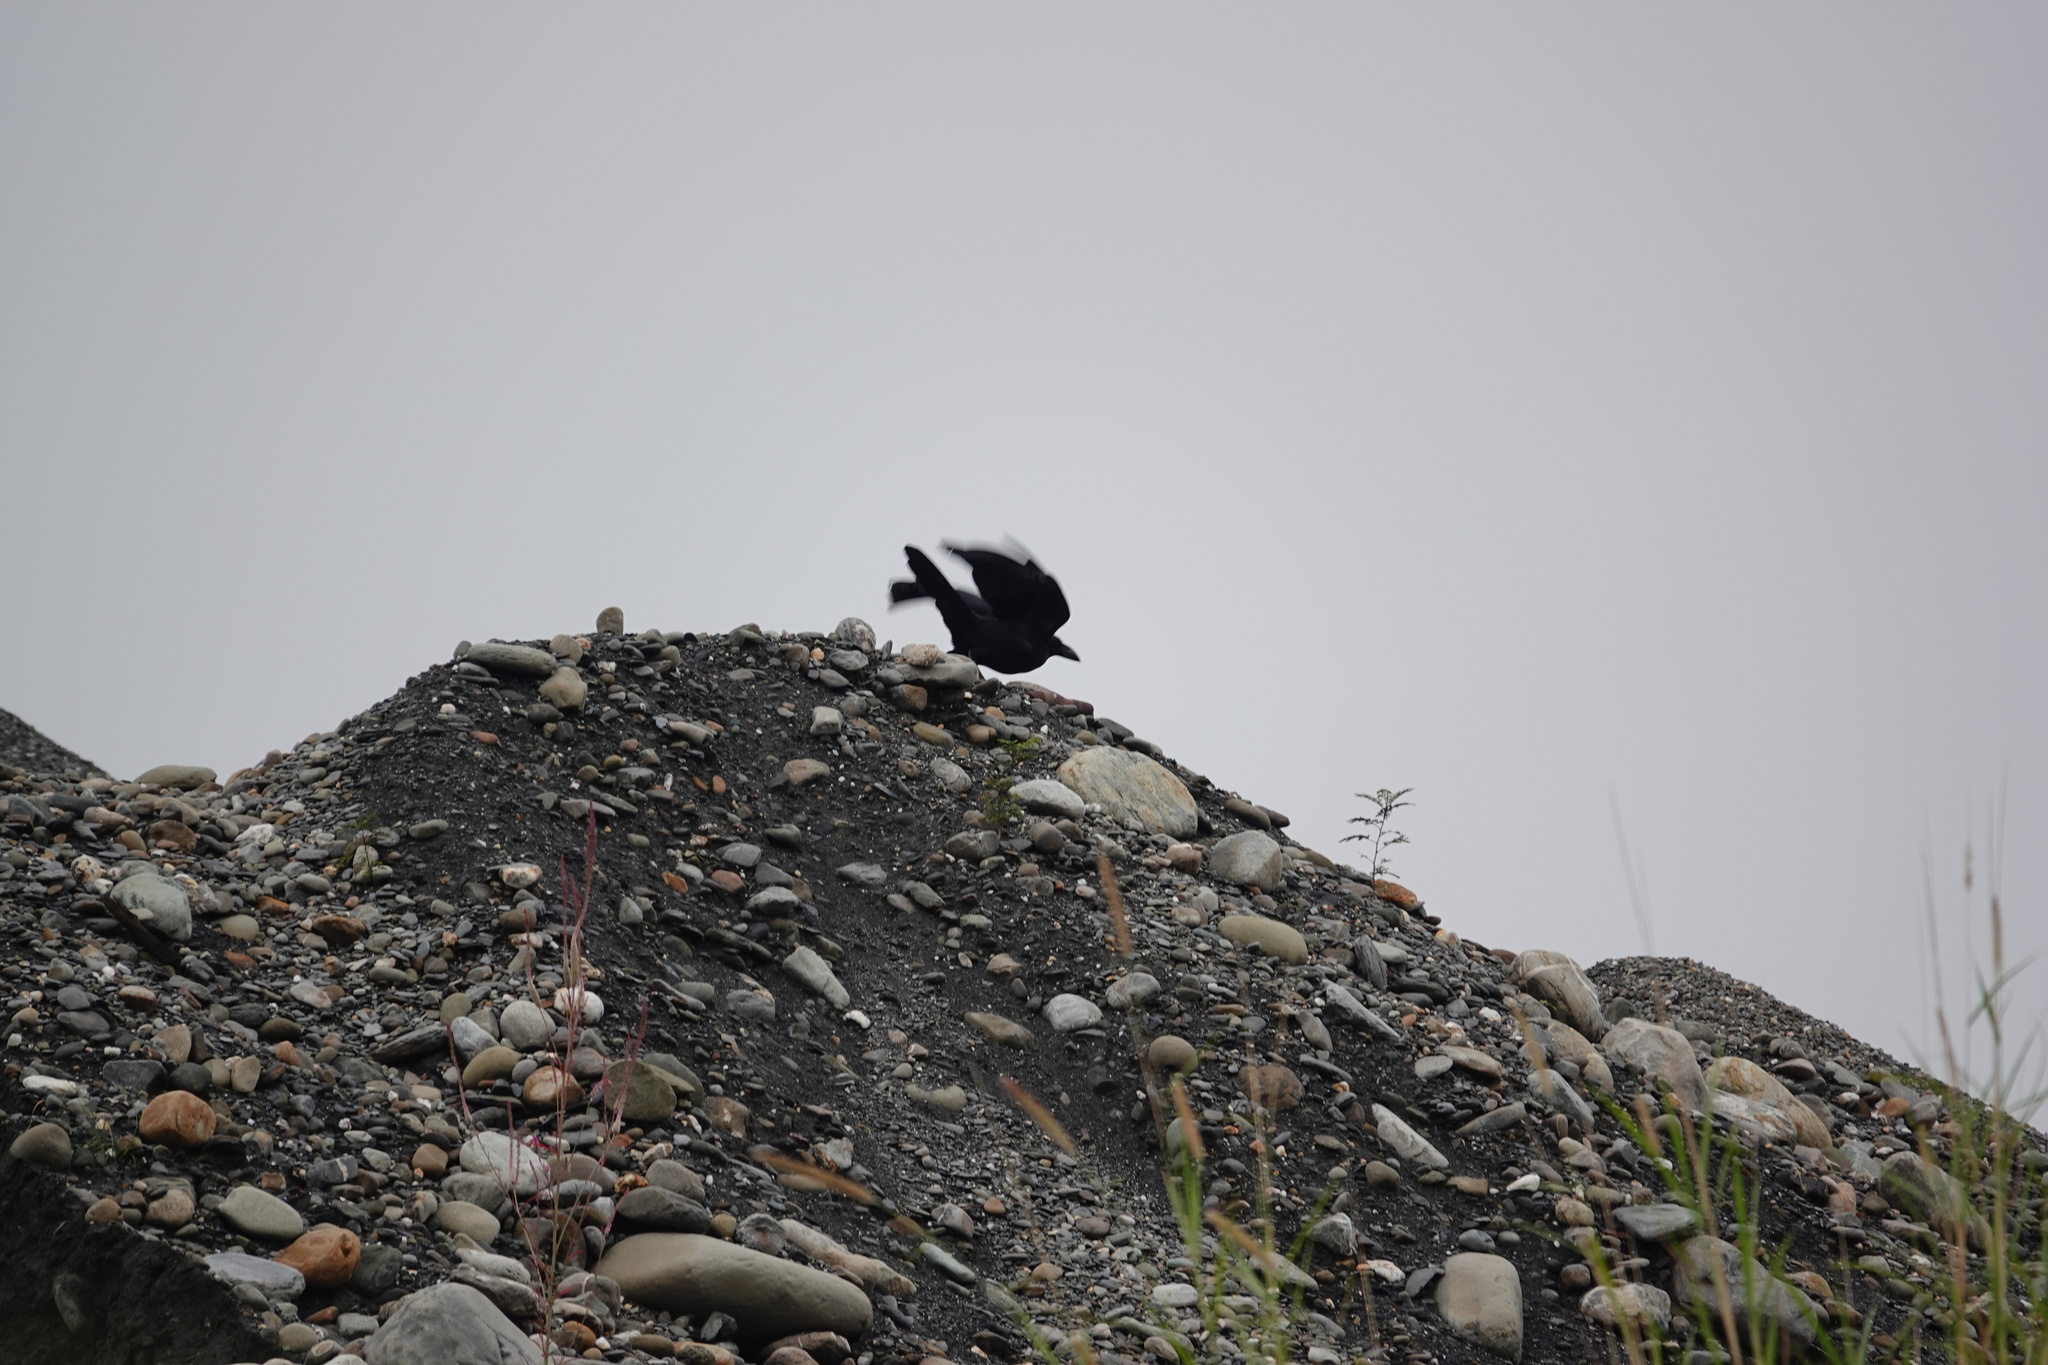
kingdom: Animalia
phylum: Chordata
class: Aves
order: Passeriformes
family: Corvidae
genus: Corvus
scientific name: Corvus macrorhynchos
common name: Large-billed crow
